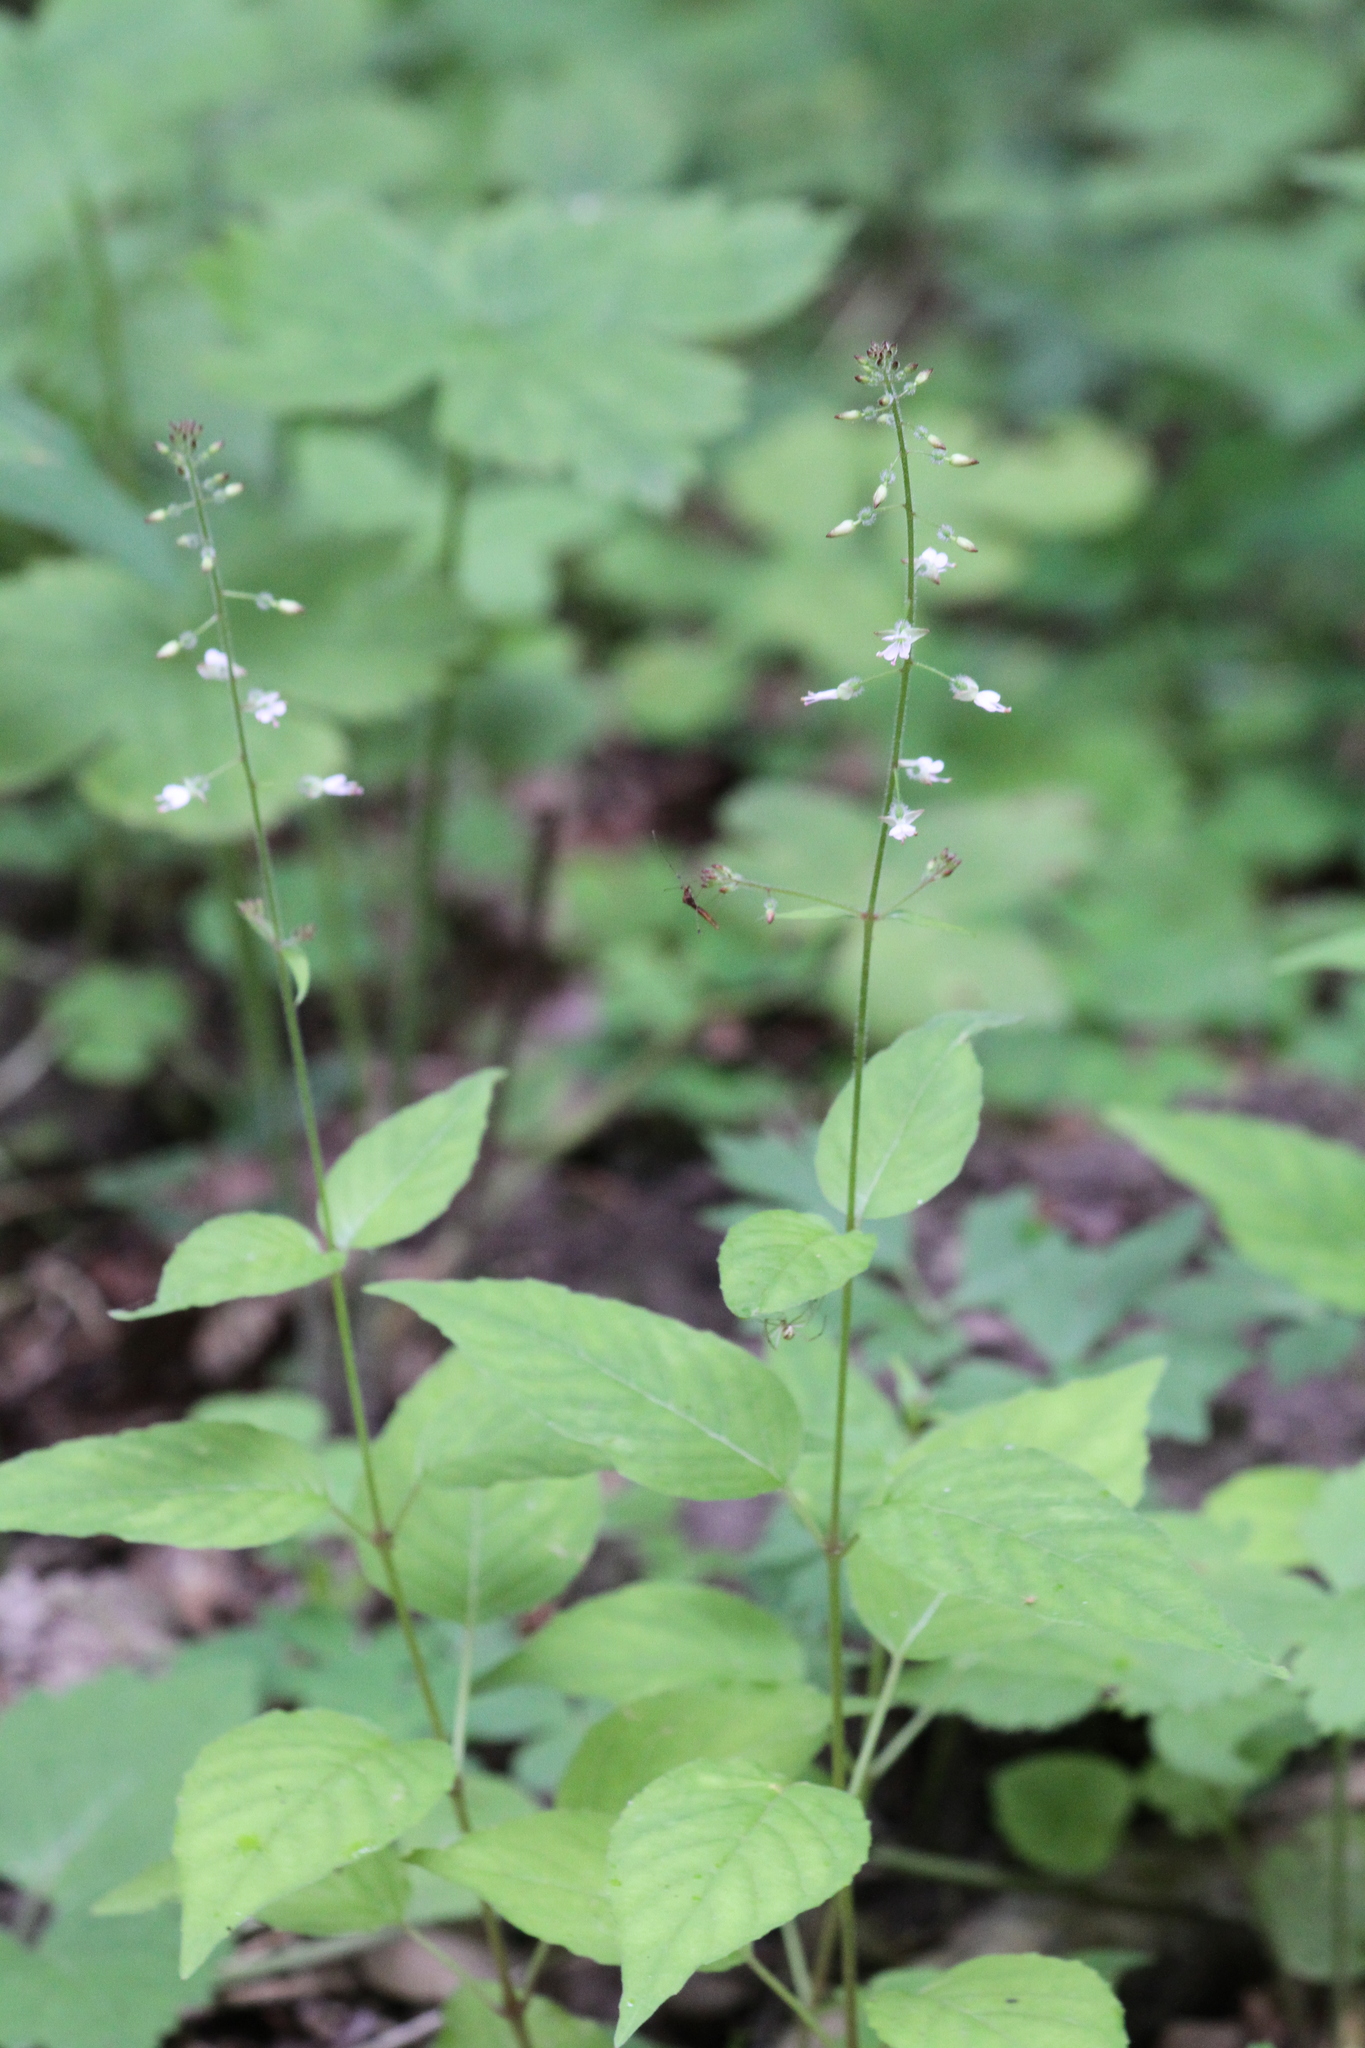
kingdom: Plantae
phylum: Tracheophyta
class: Magnoliopsida
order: Myrtales
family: Onagraceae
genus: Circaea
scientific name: Circaea lutetiana
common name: Enchanter's-nightshade
